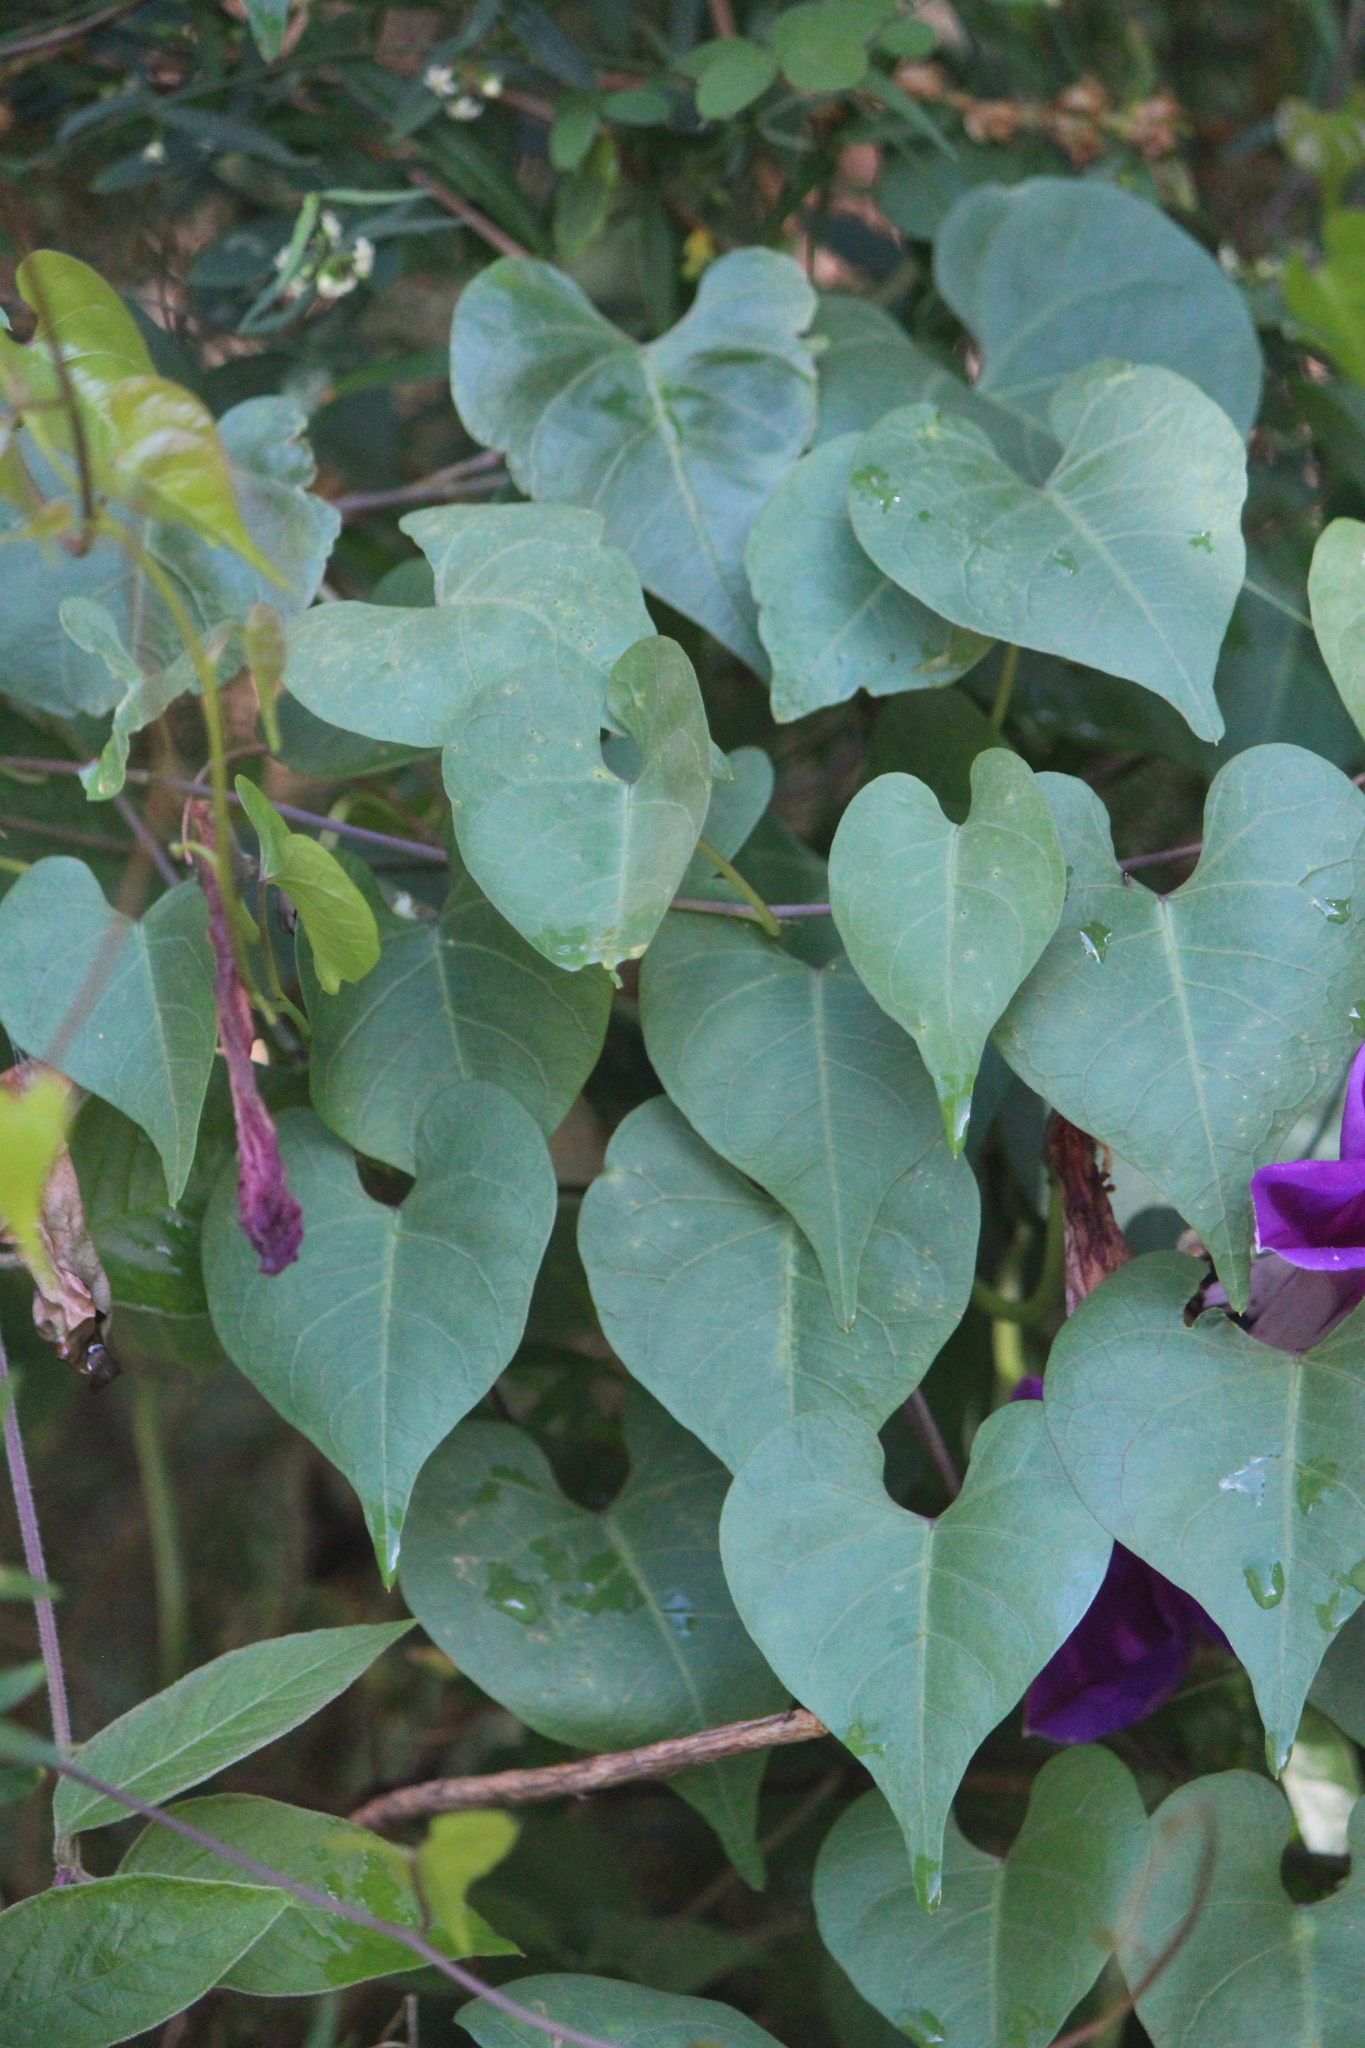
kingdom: Plantae
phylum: Tracheophyta
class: Magnoliopsida
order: Solanales
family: Convolvulaceae
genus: Ipomoea
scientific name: Ipomoea lozanii
